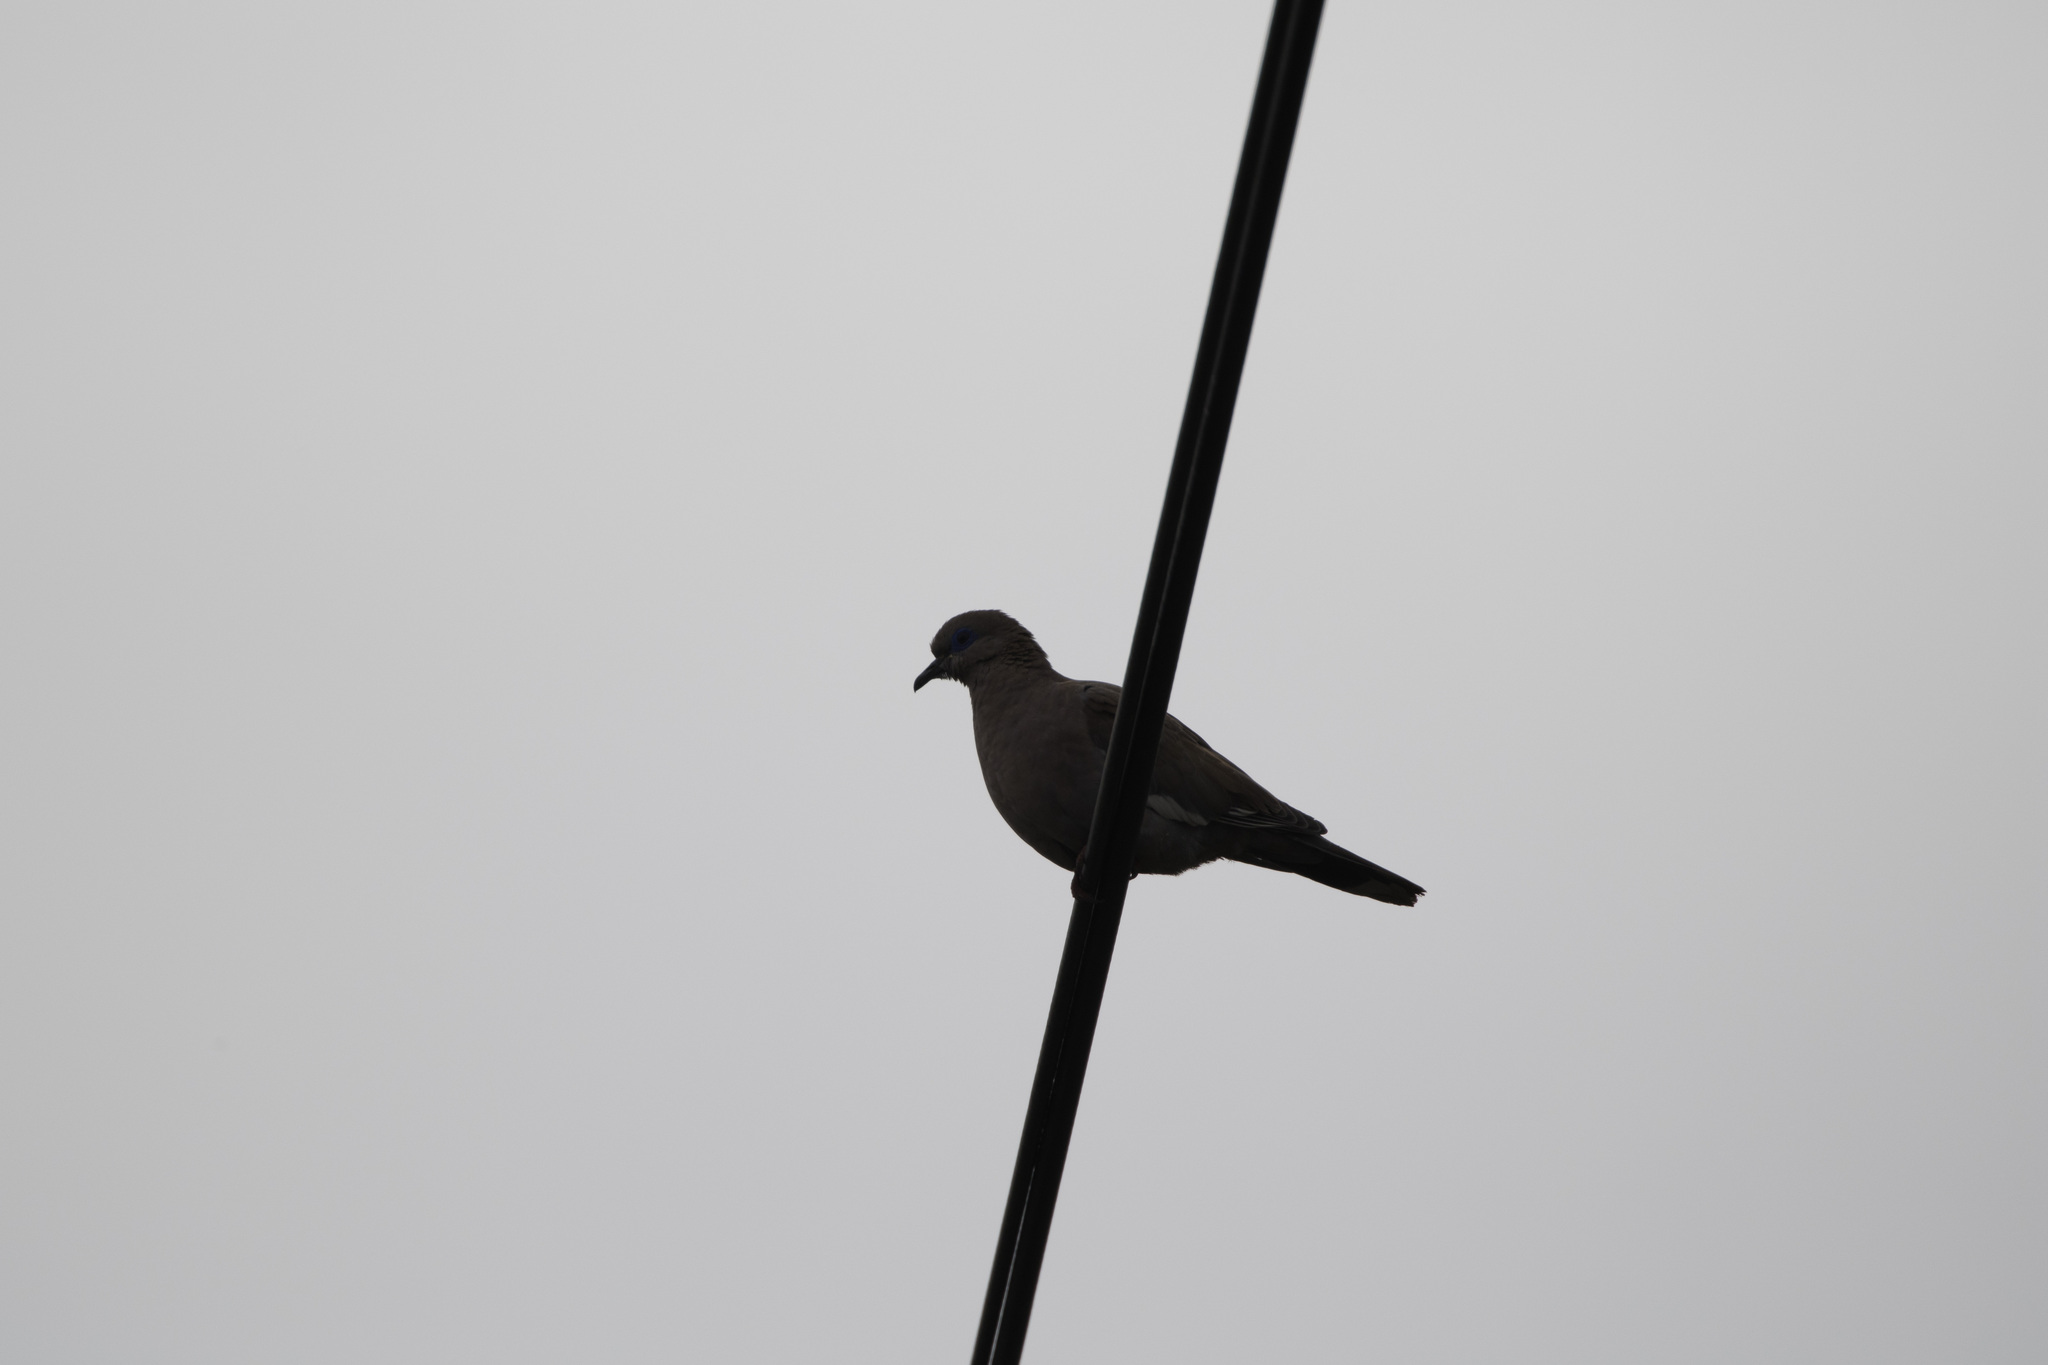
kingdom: Animalia
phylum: Chordata
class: Aves
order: Columbiformes
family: Columbidae
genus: Zenaida
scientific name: Zenaida meloda
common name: West peruvian dove
